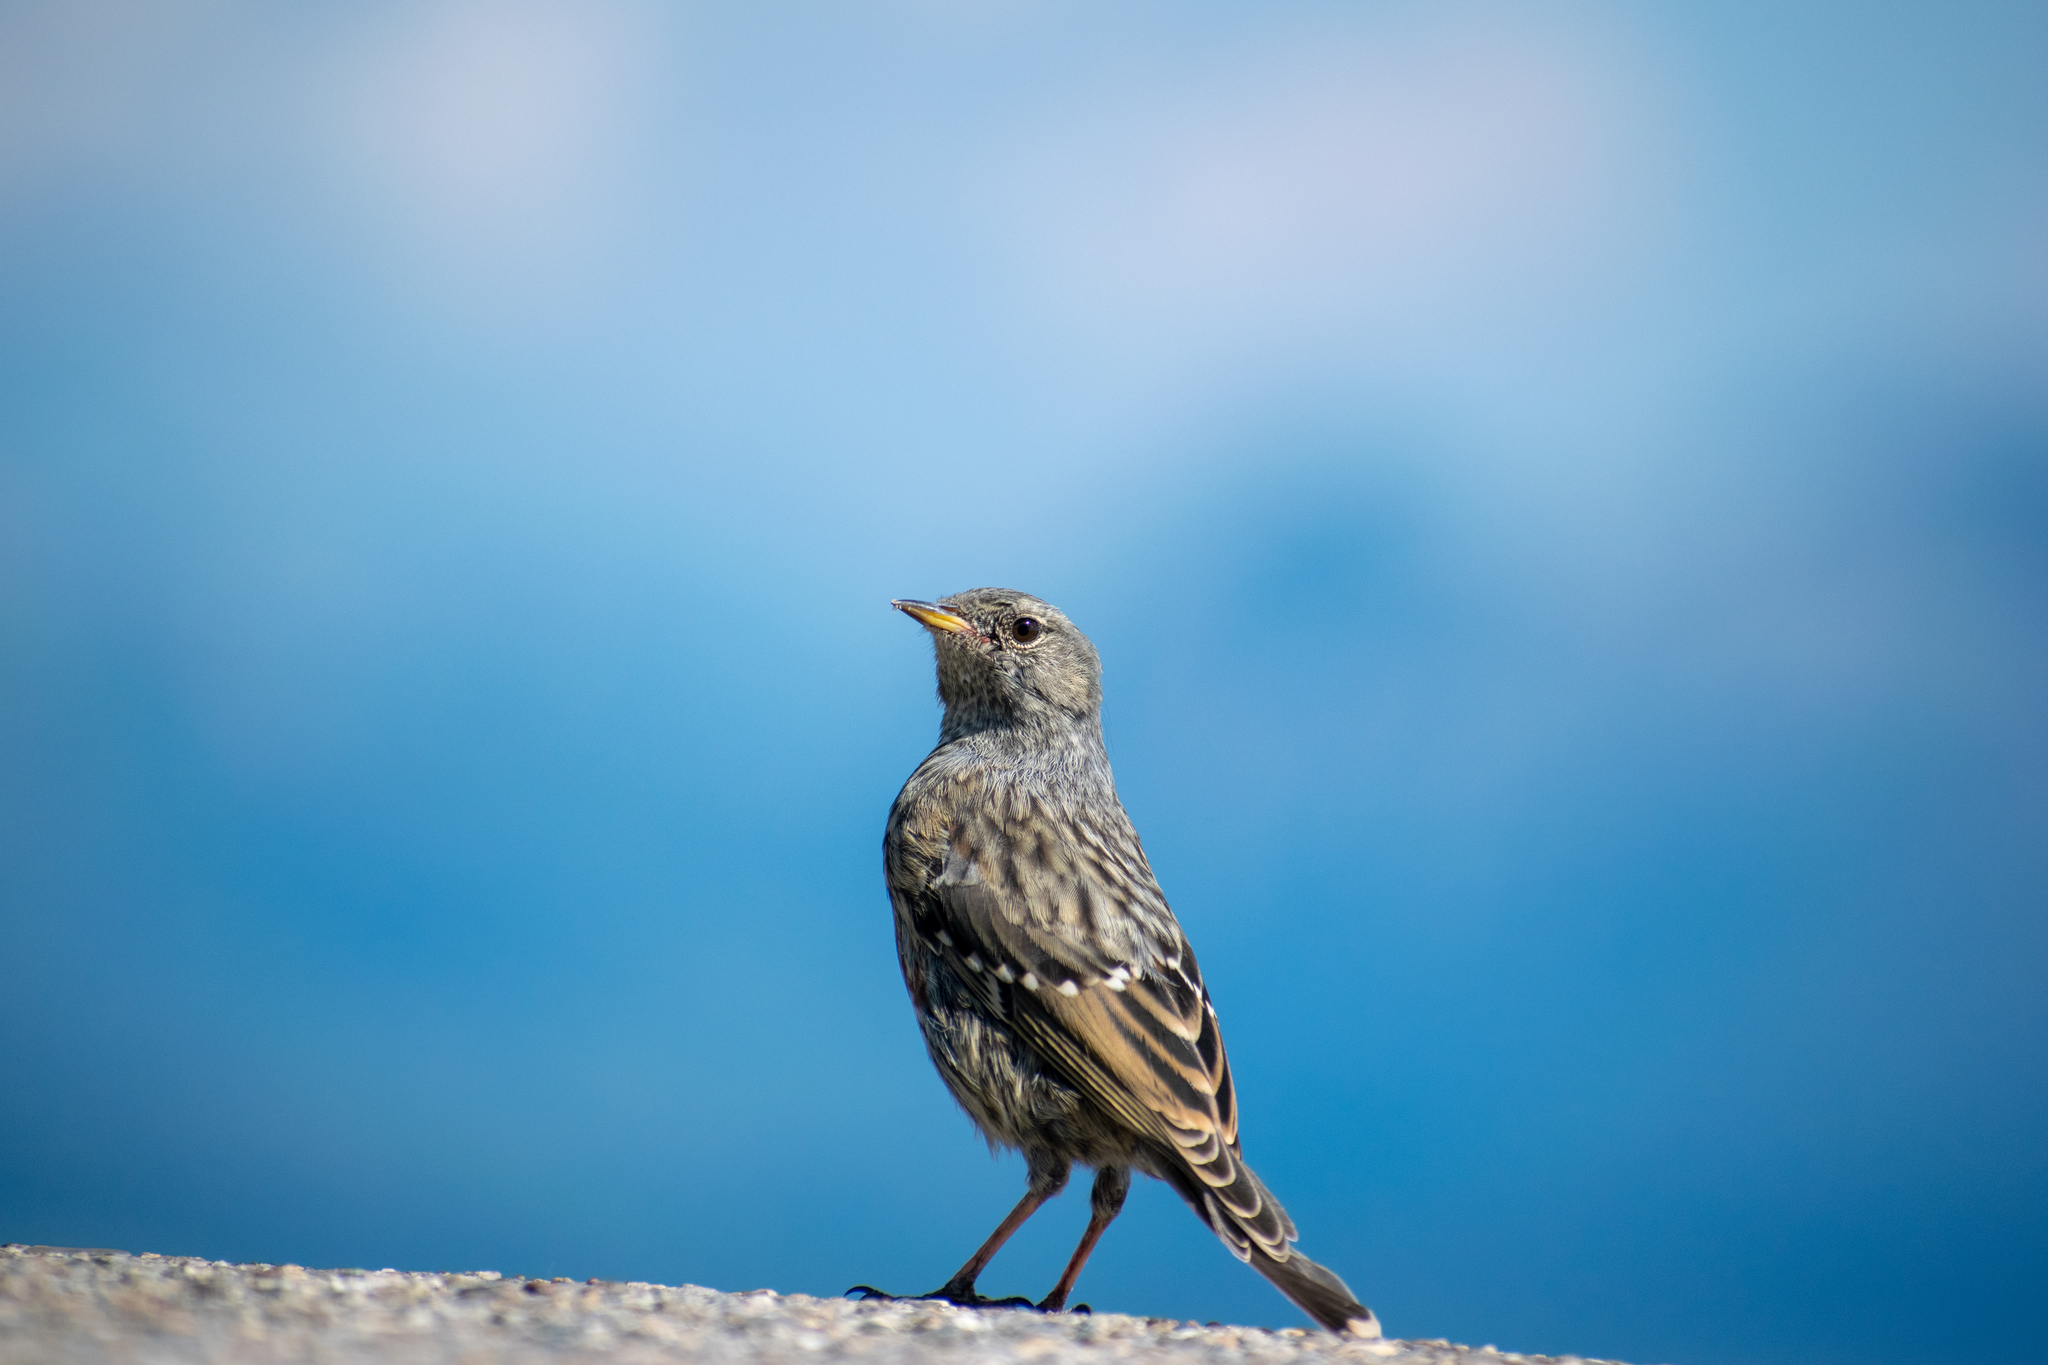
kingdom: Animalia
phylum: Chordata
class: Aves
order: Passeriformes
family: Prunellidae
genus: Prunella
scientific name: Prunella collaris
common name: Alpine accentor
